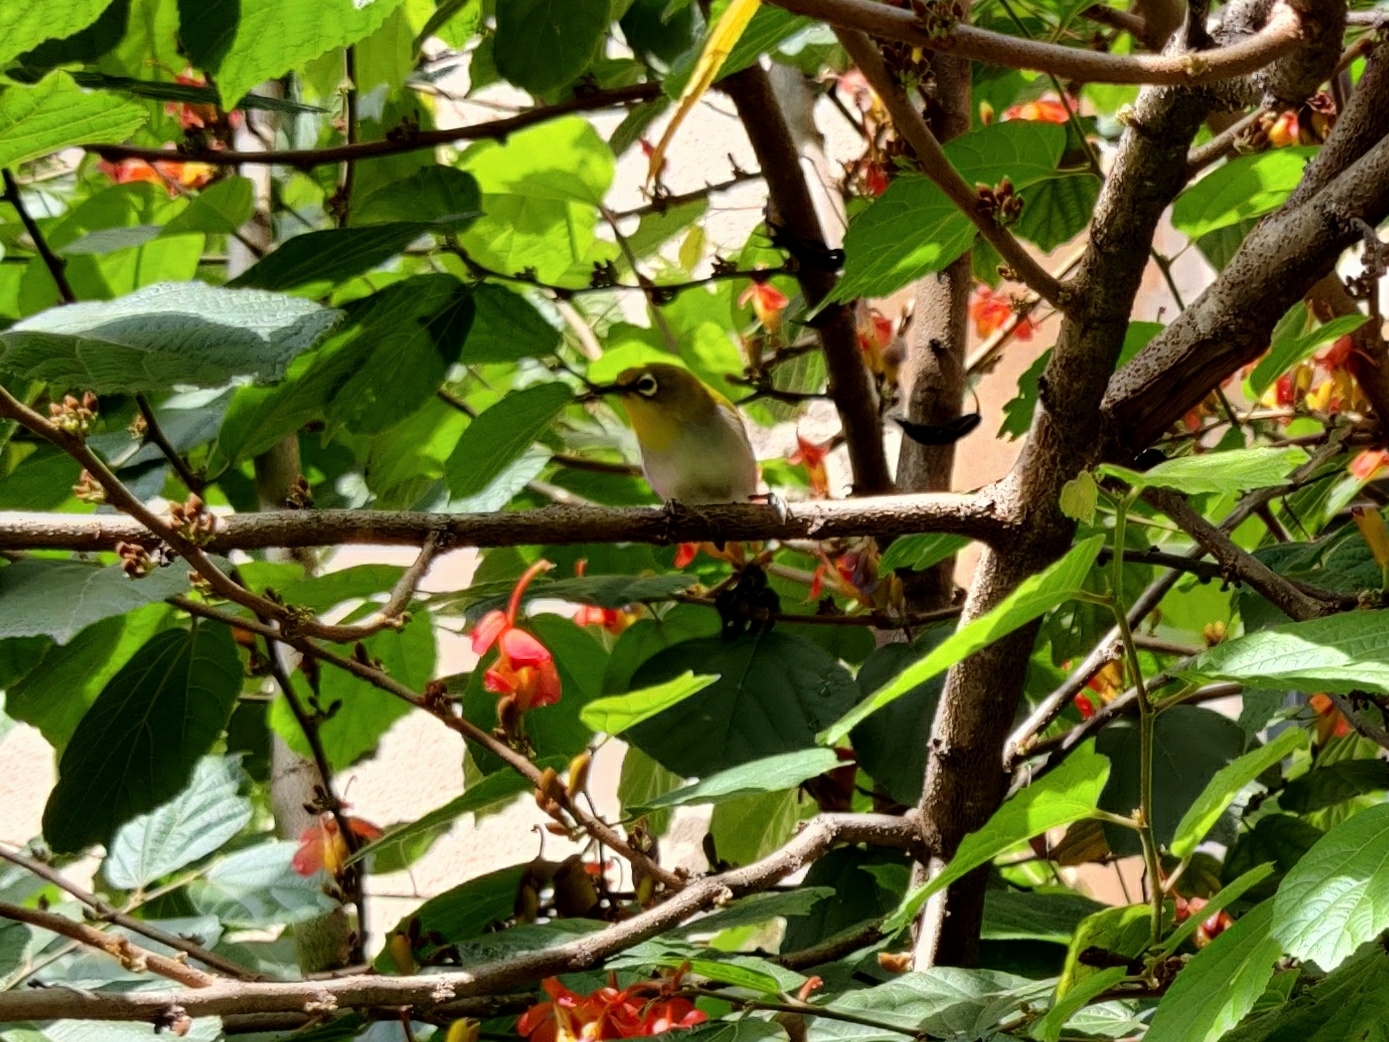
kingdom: Animalia
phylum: Chordata
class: Aves
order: Passeriformes
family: Zosteropidae
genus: Zosterops
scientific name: Zosterops palpebrosus
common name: Oriental white-eye
